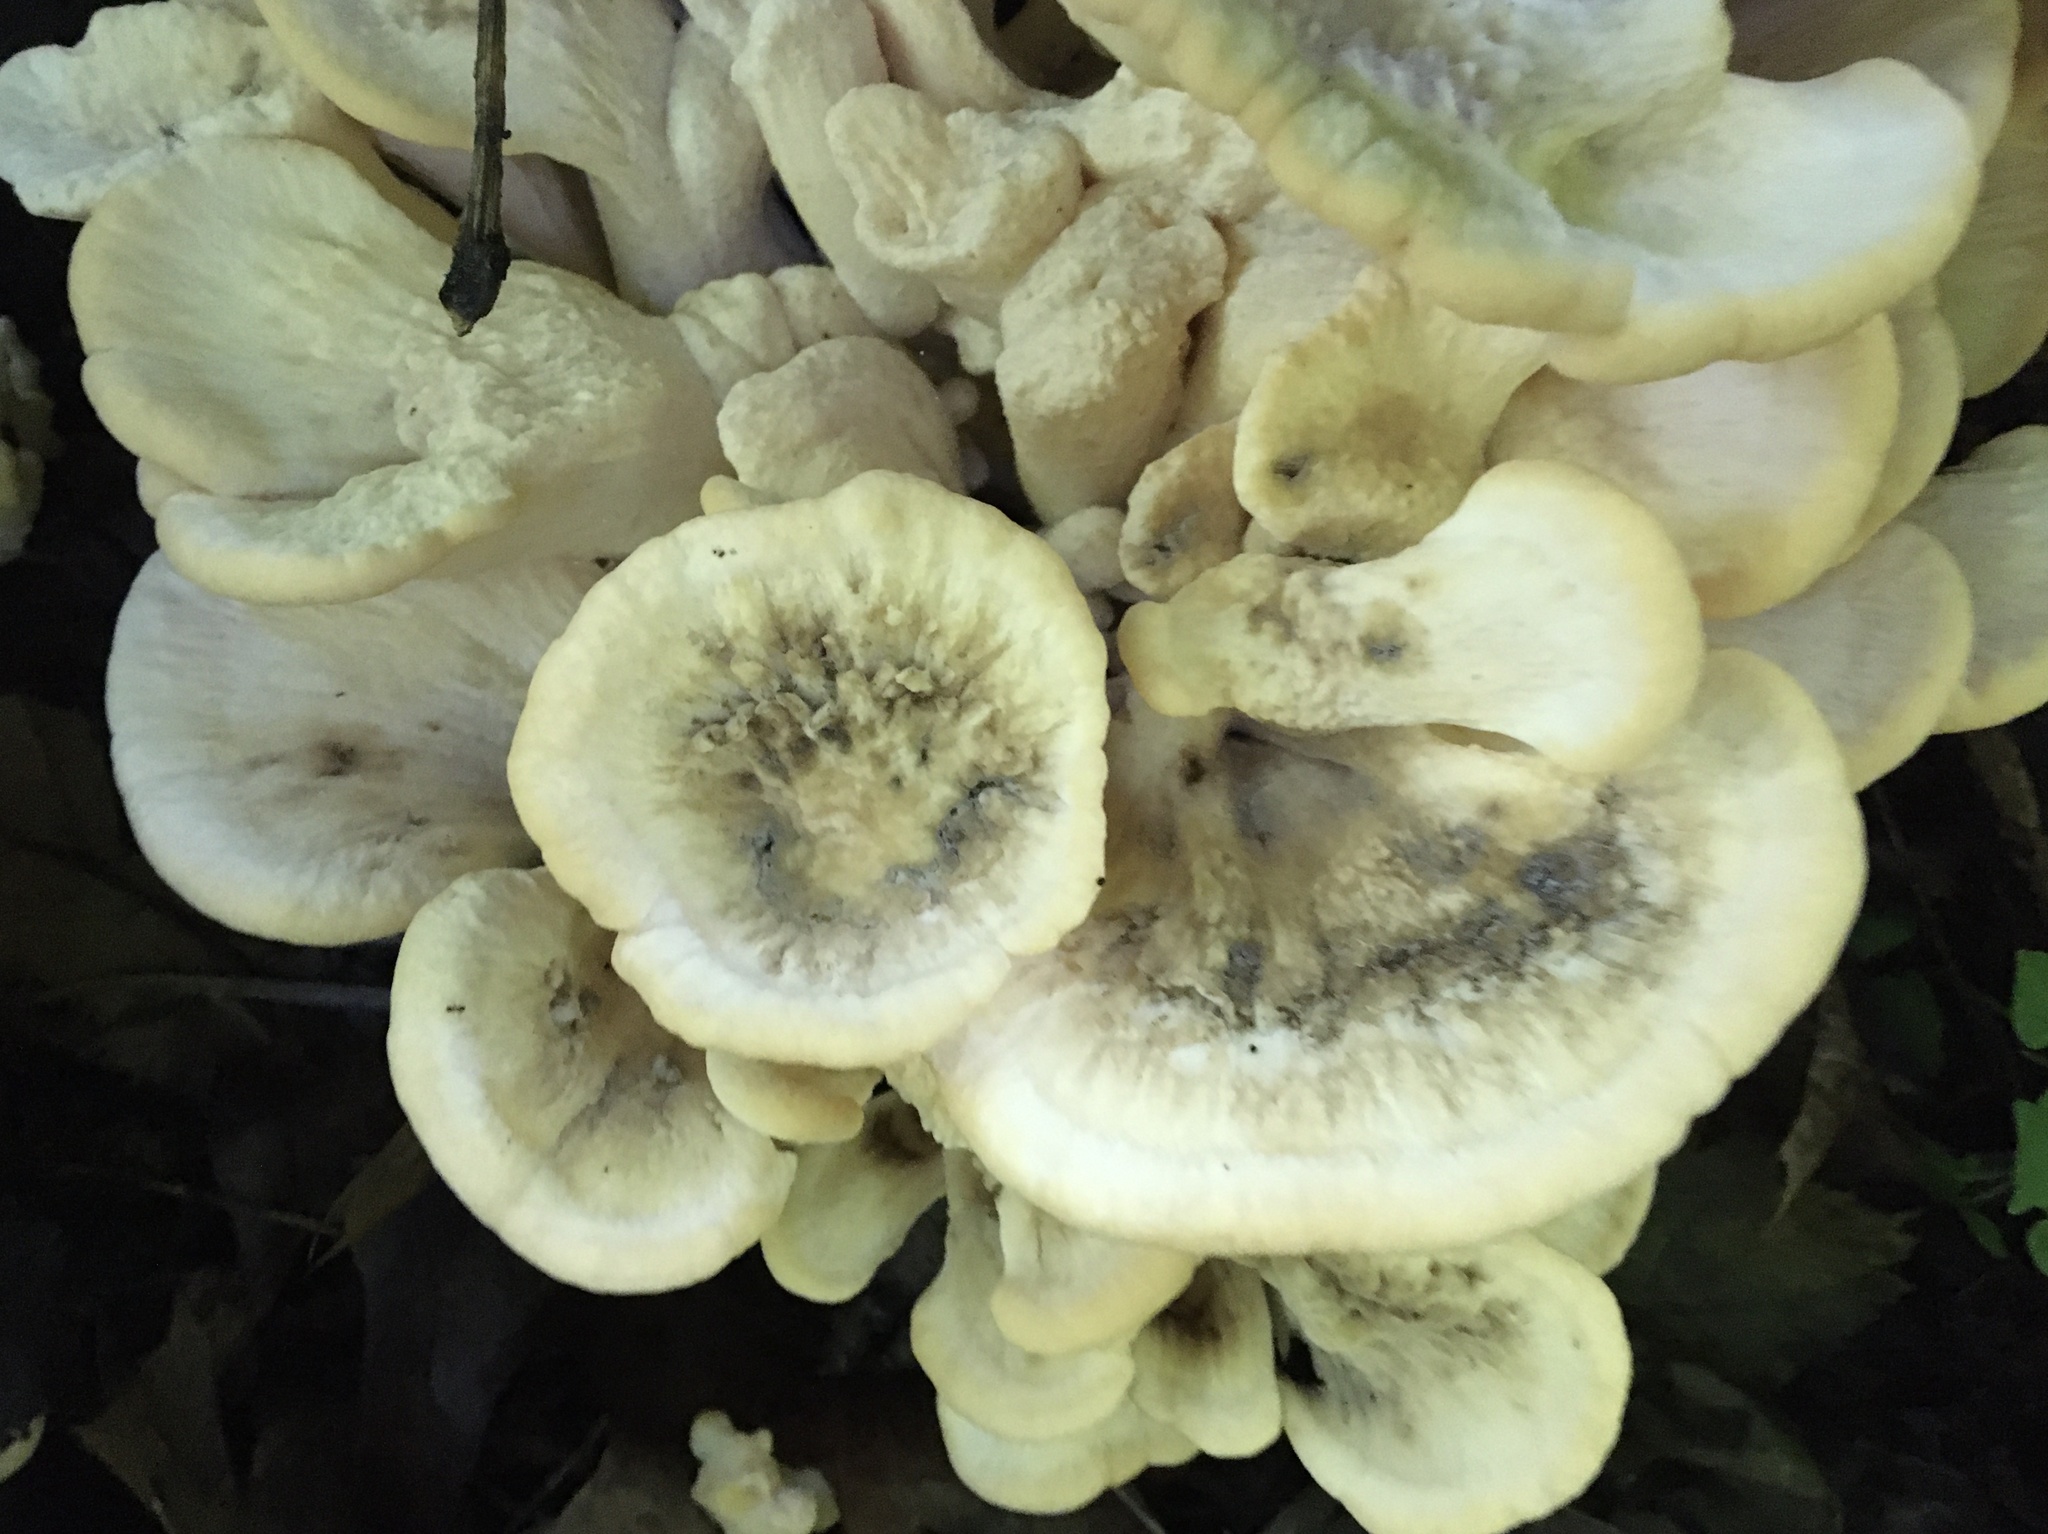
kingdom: Fungi
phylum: Basidiomycota
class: Agaricomycetes
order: Polyporales
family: Meripilaceae
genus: Meripilus
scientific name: Meripilus sumstinei
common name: Black-staining polypore
